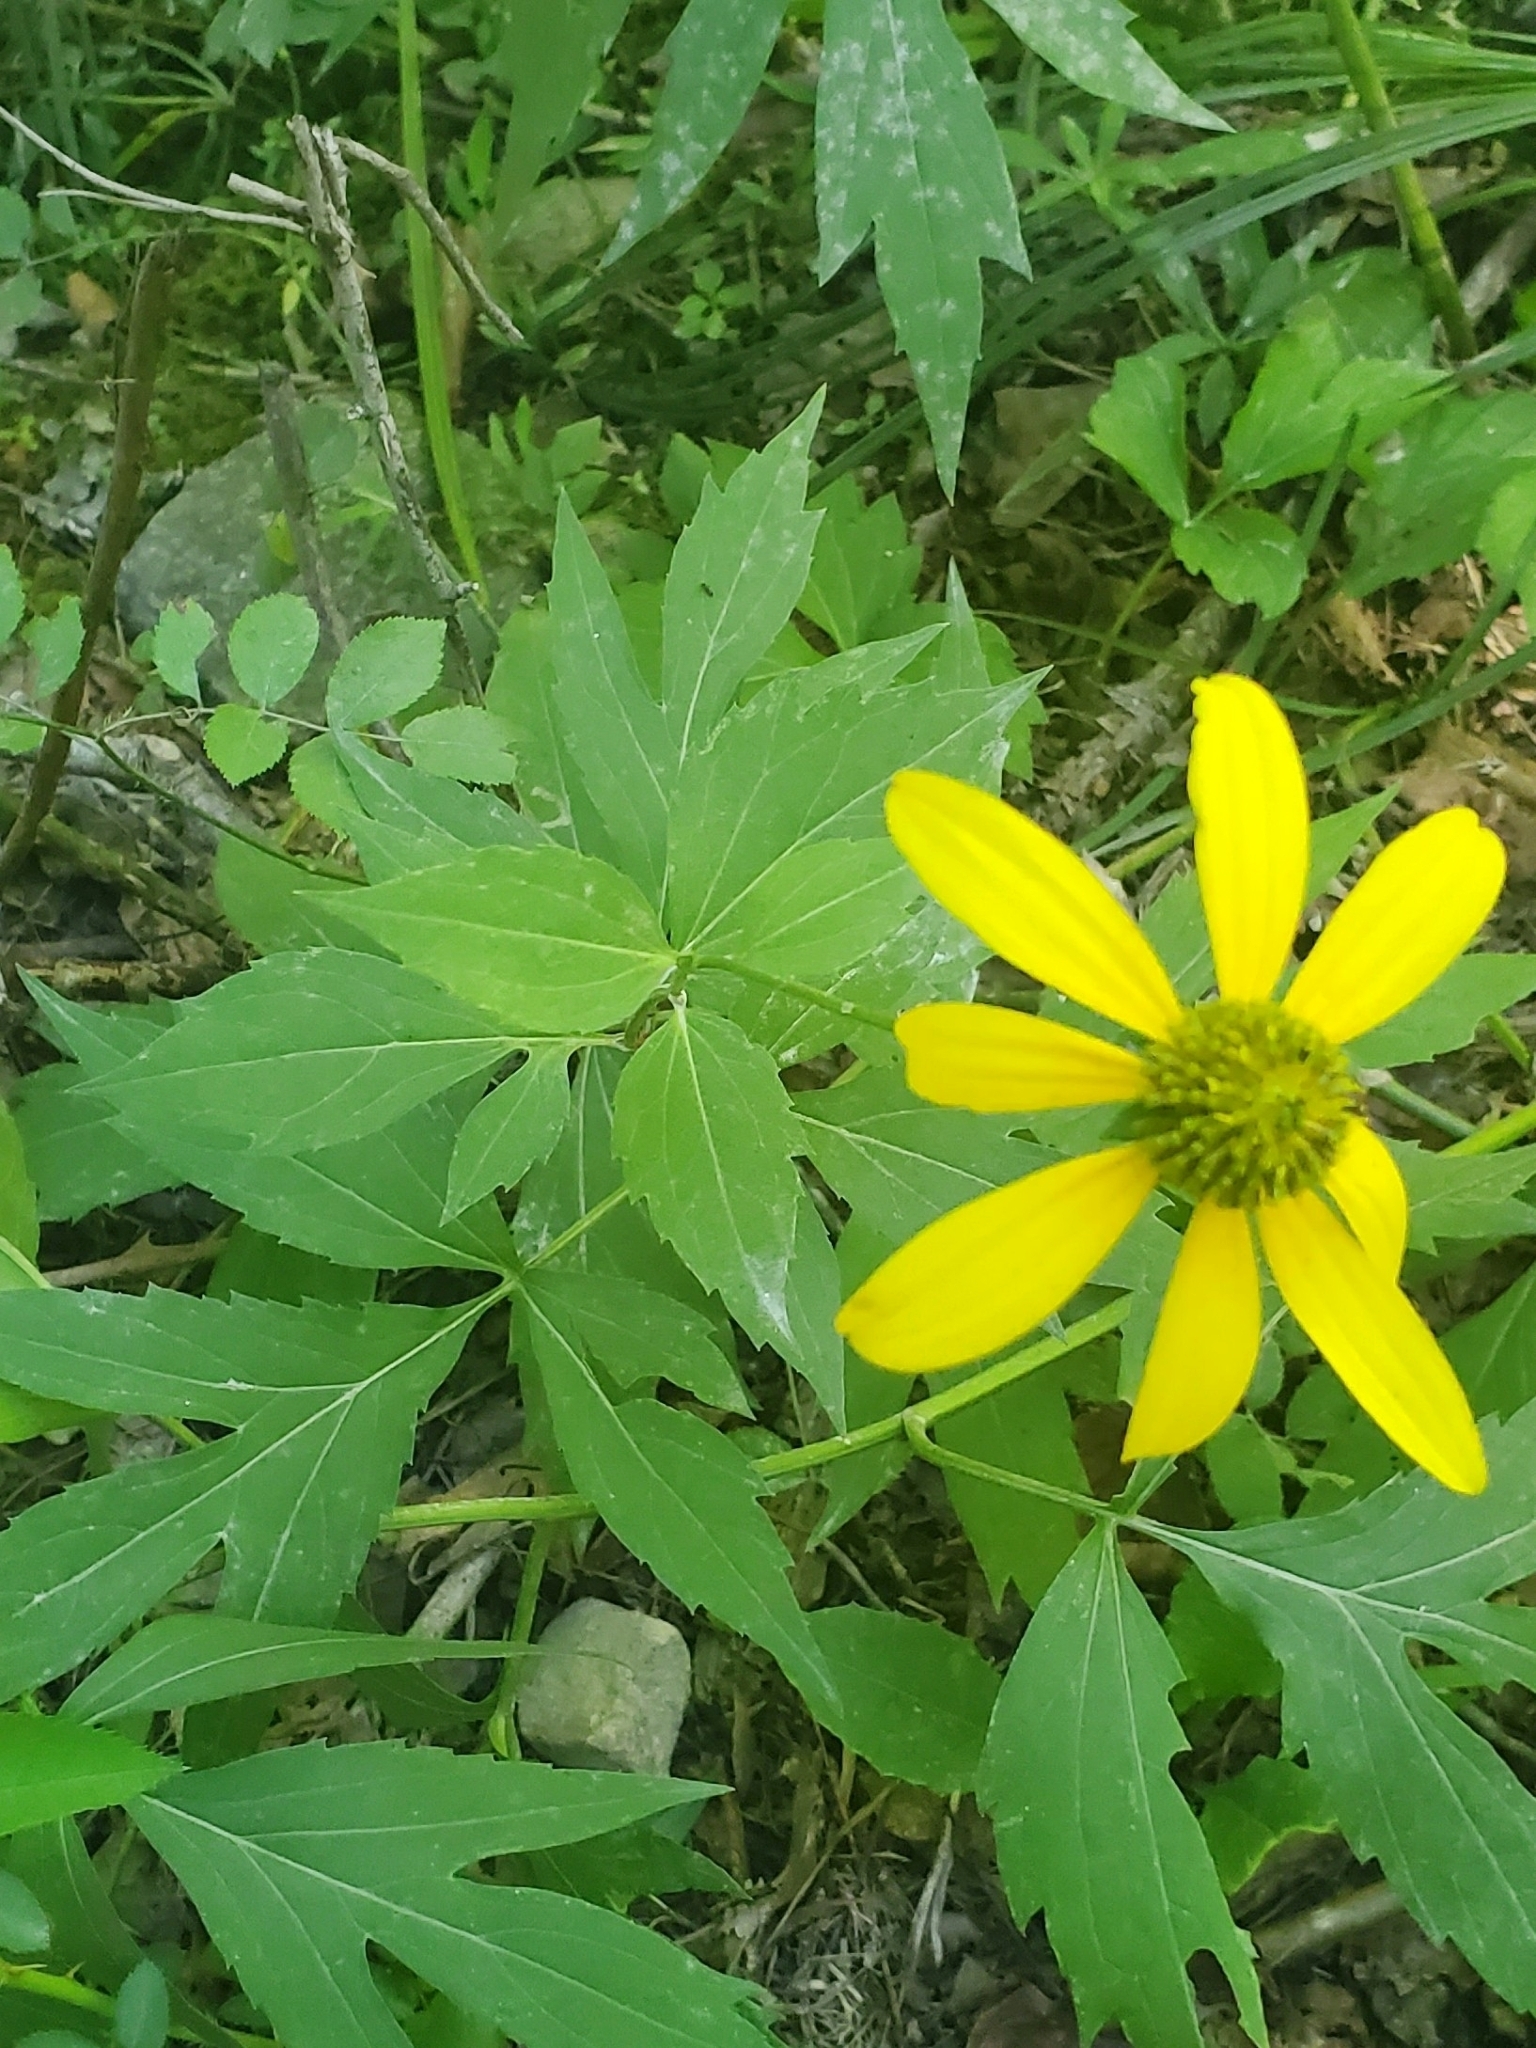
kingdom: Plantae
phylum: Tracheophyta
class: Magnoliopsida
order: Asterales
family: Asteraceae
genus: Rudbeckia
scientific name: Rudbeckia laciniata
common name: Coneflower
